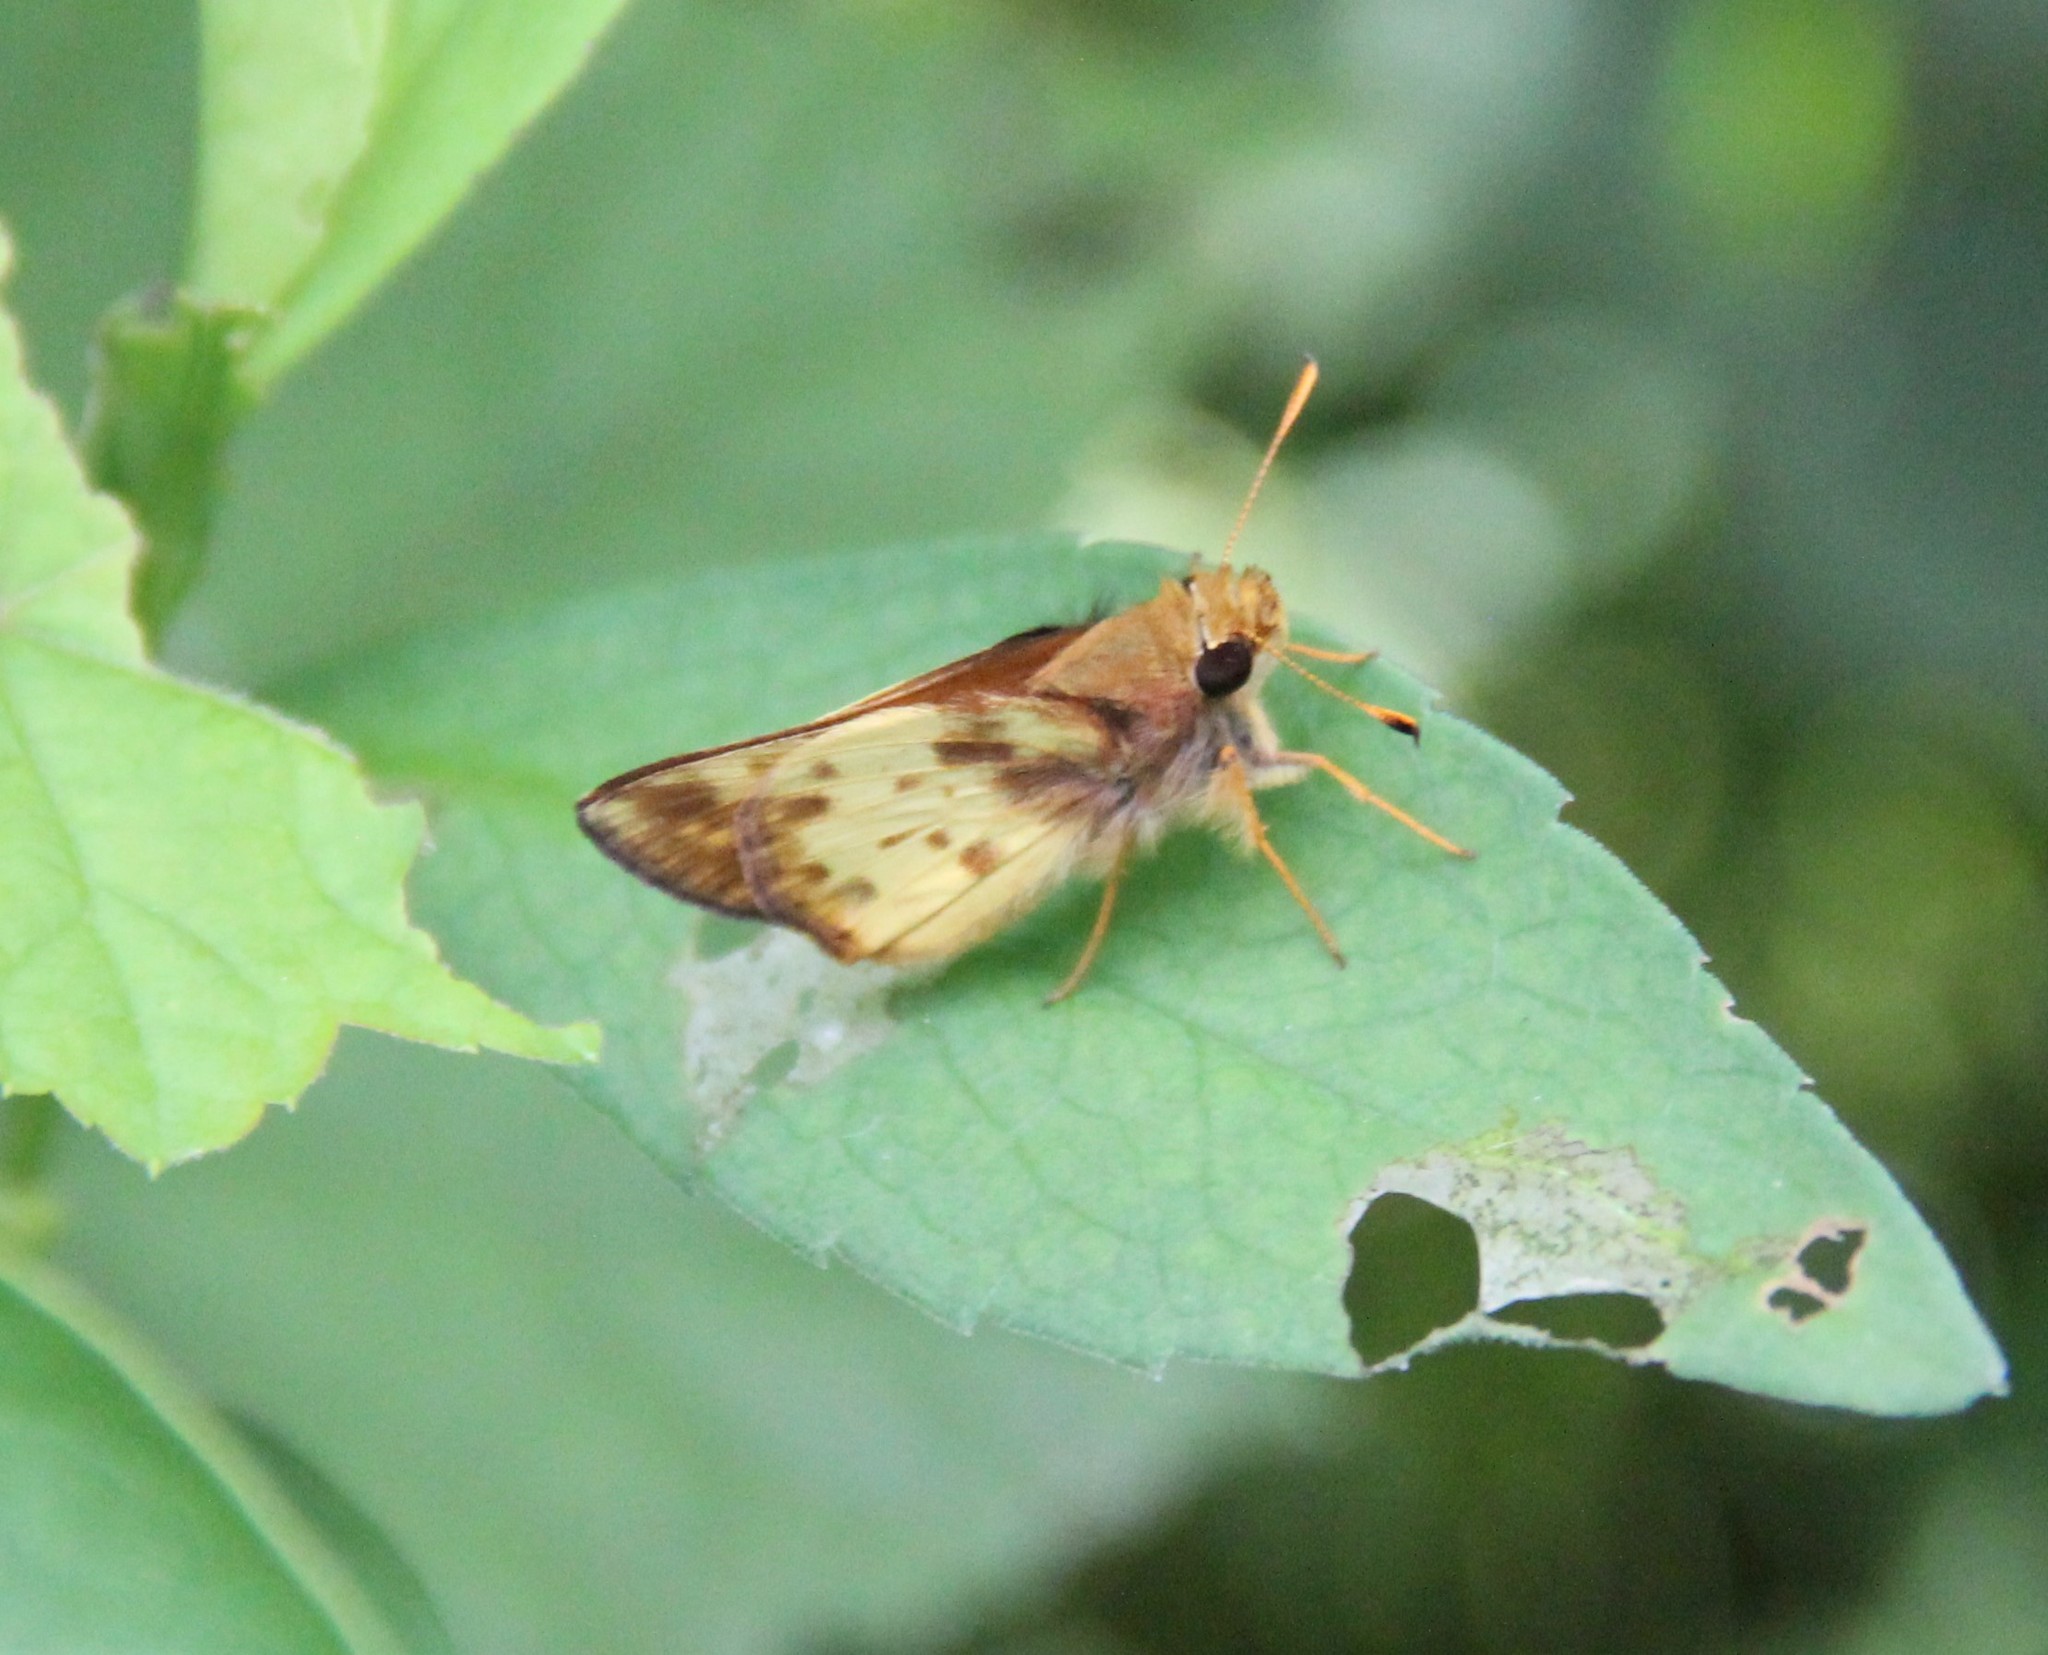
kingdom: Animalia
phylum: Arthropoda
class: Insecta
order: Lepidoptera
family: Hesperiidae
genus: Lon
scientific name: Lon zabulon
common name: Zabulon skipper
